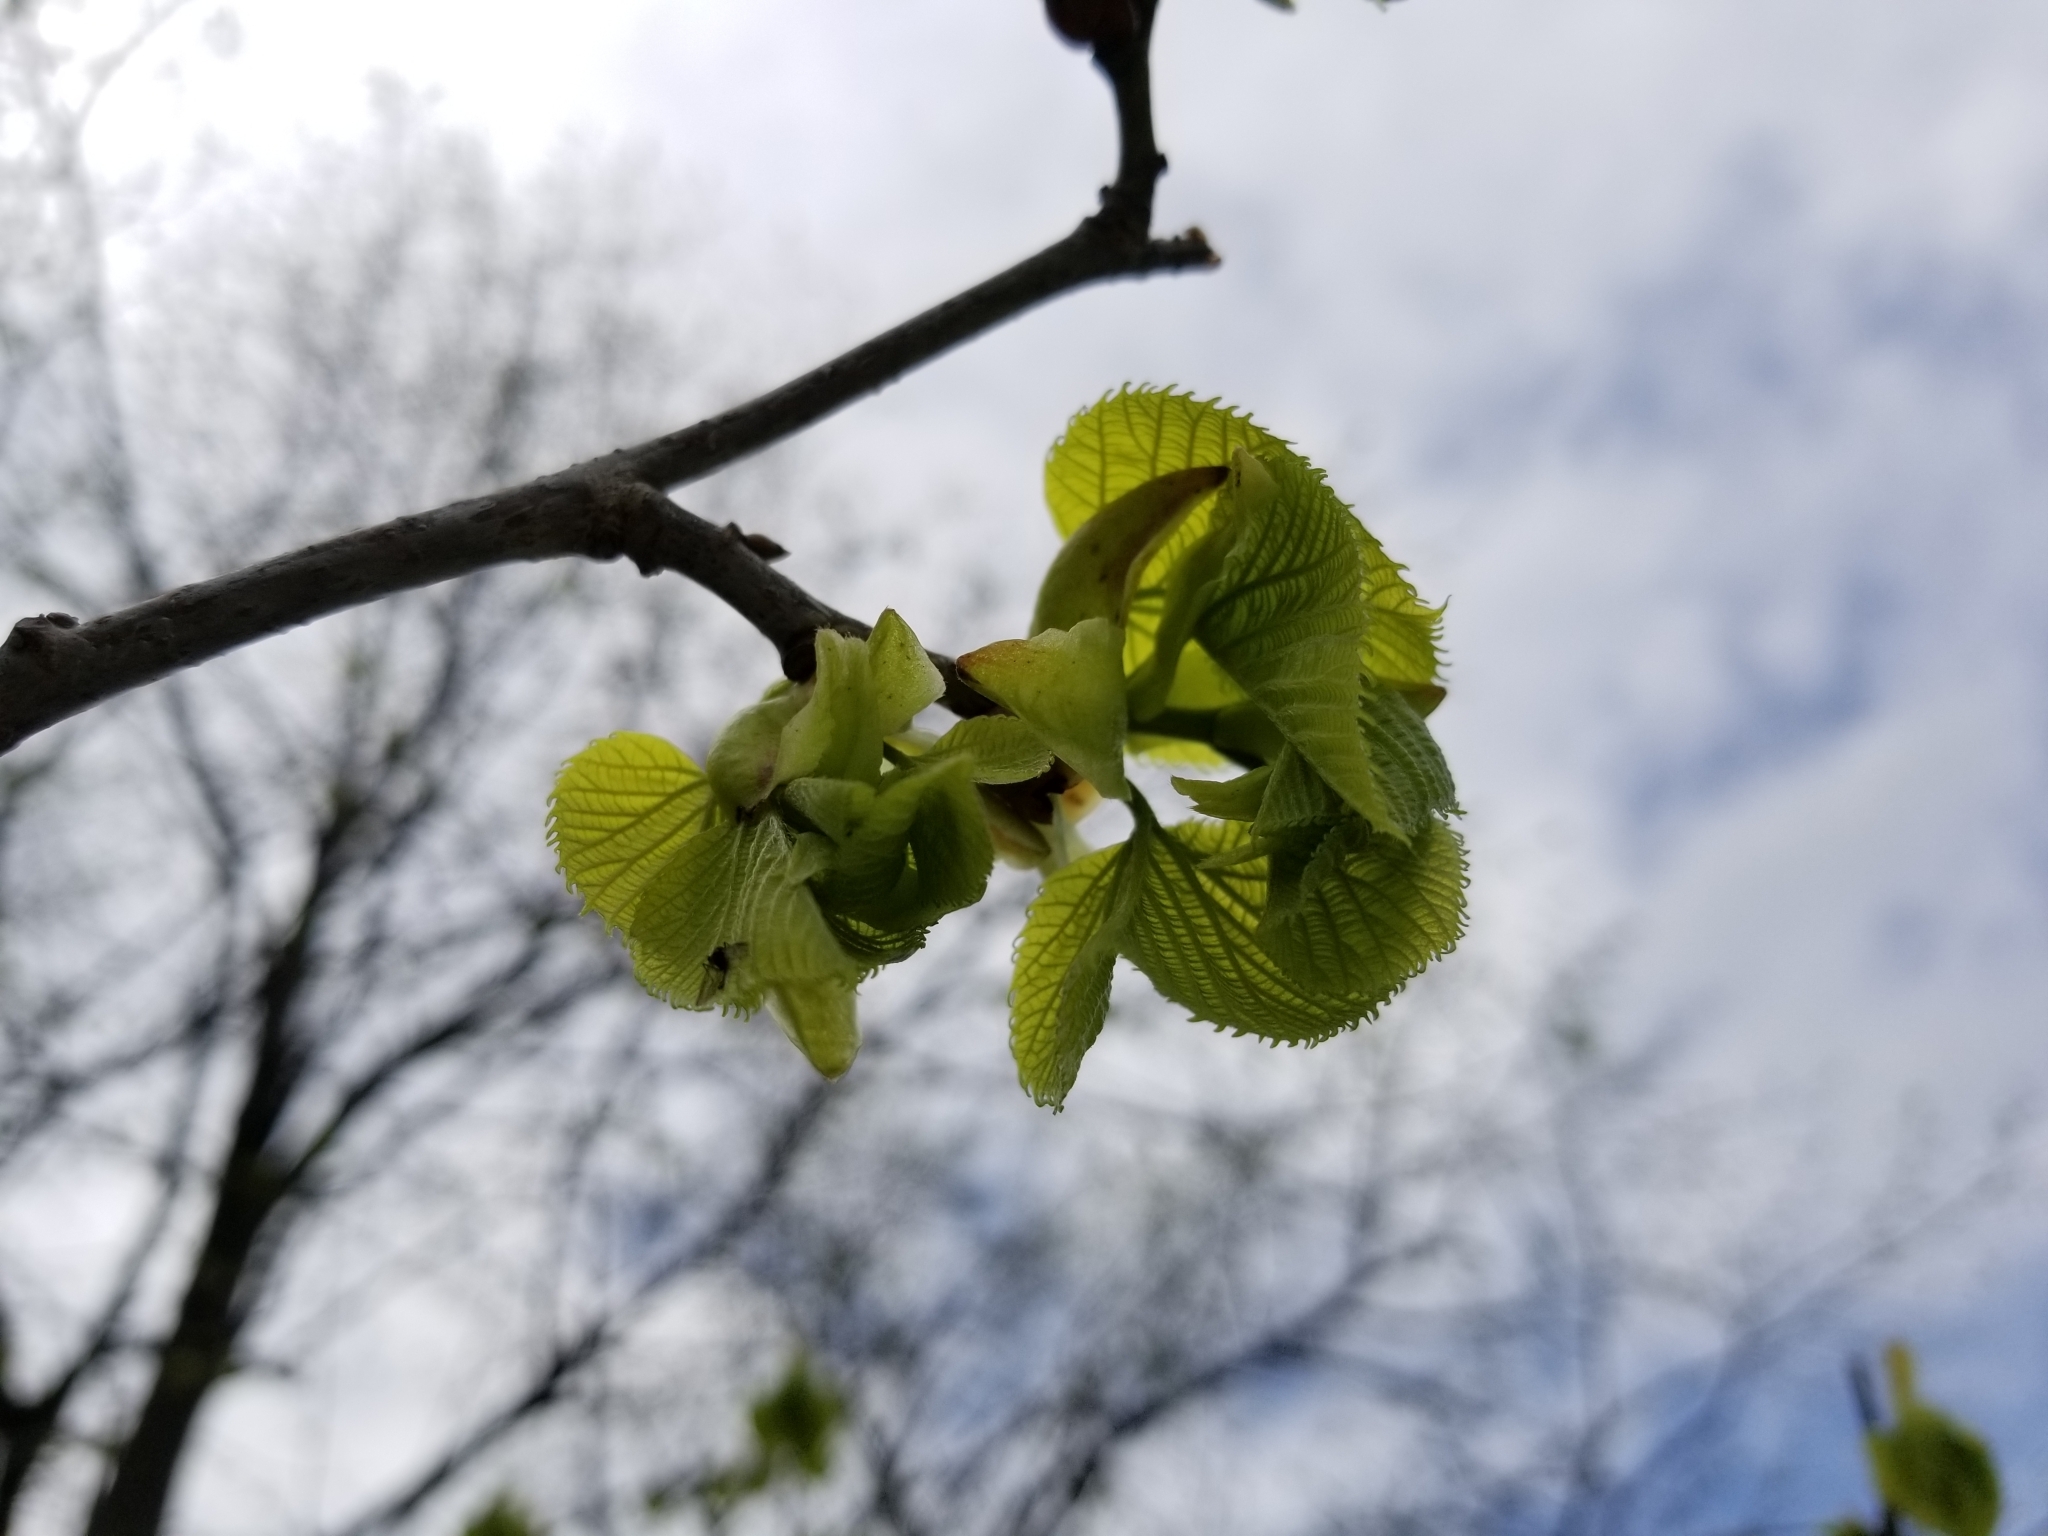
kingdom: Plantae
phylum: Tracheophyta
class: Magnoliopsida
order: Malvales
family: Malvaceae
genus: Tilia
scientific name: Tilia americana
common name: Basswood
